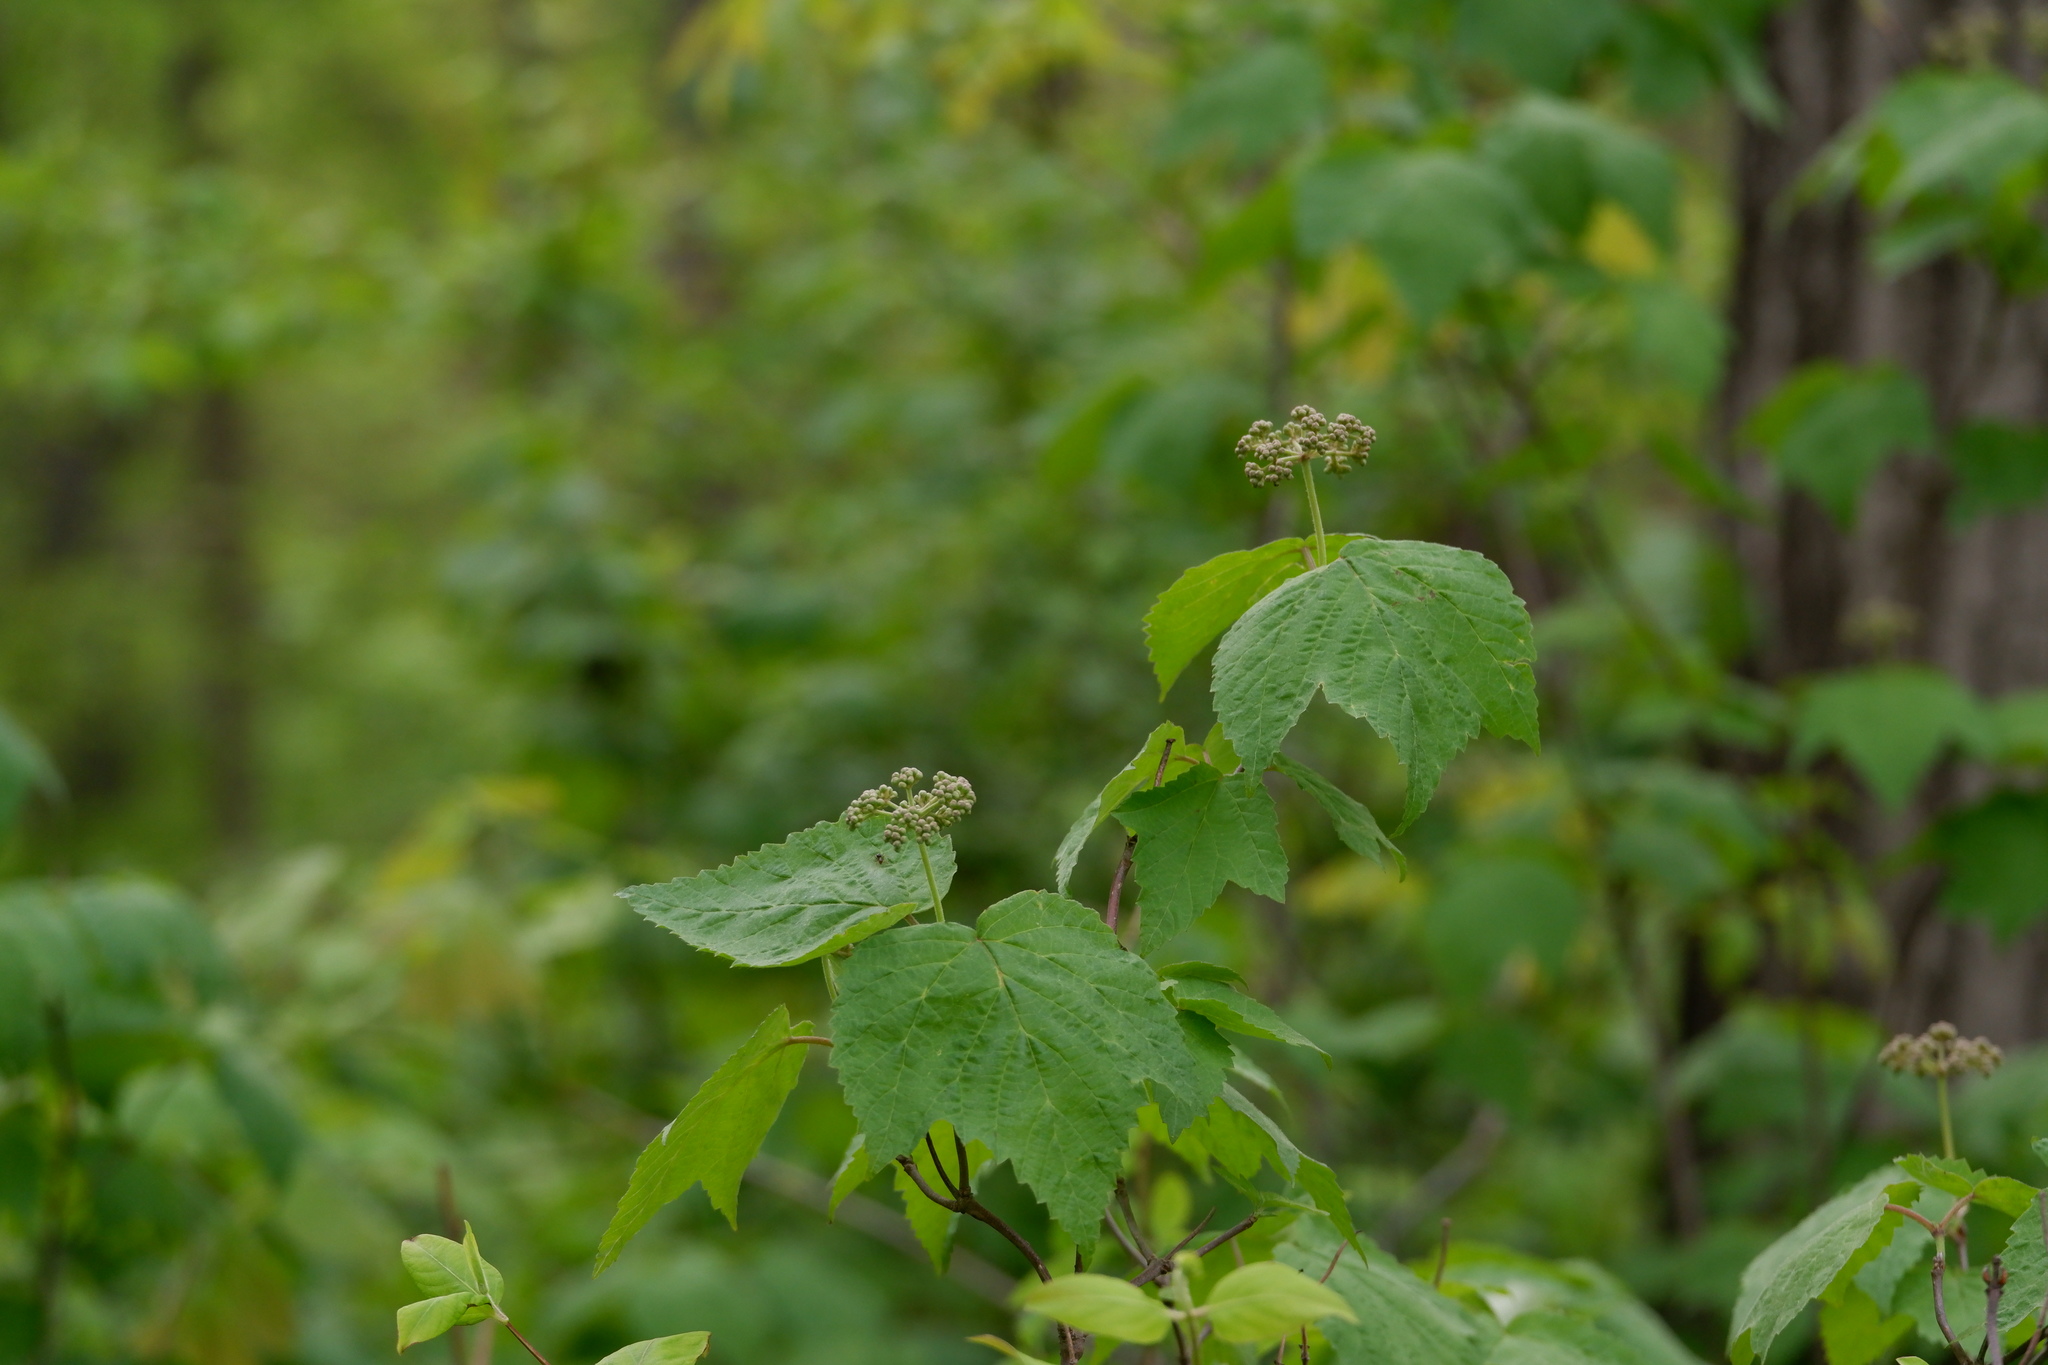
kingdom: Plantae
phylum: Tracheophyta
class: Magnoliopsida
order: Dipsacales
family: Viburnaceae
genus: Viburnum
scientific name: Viburnum acerifolium
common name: Dockmackie
